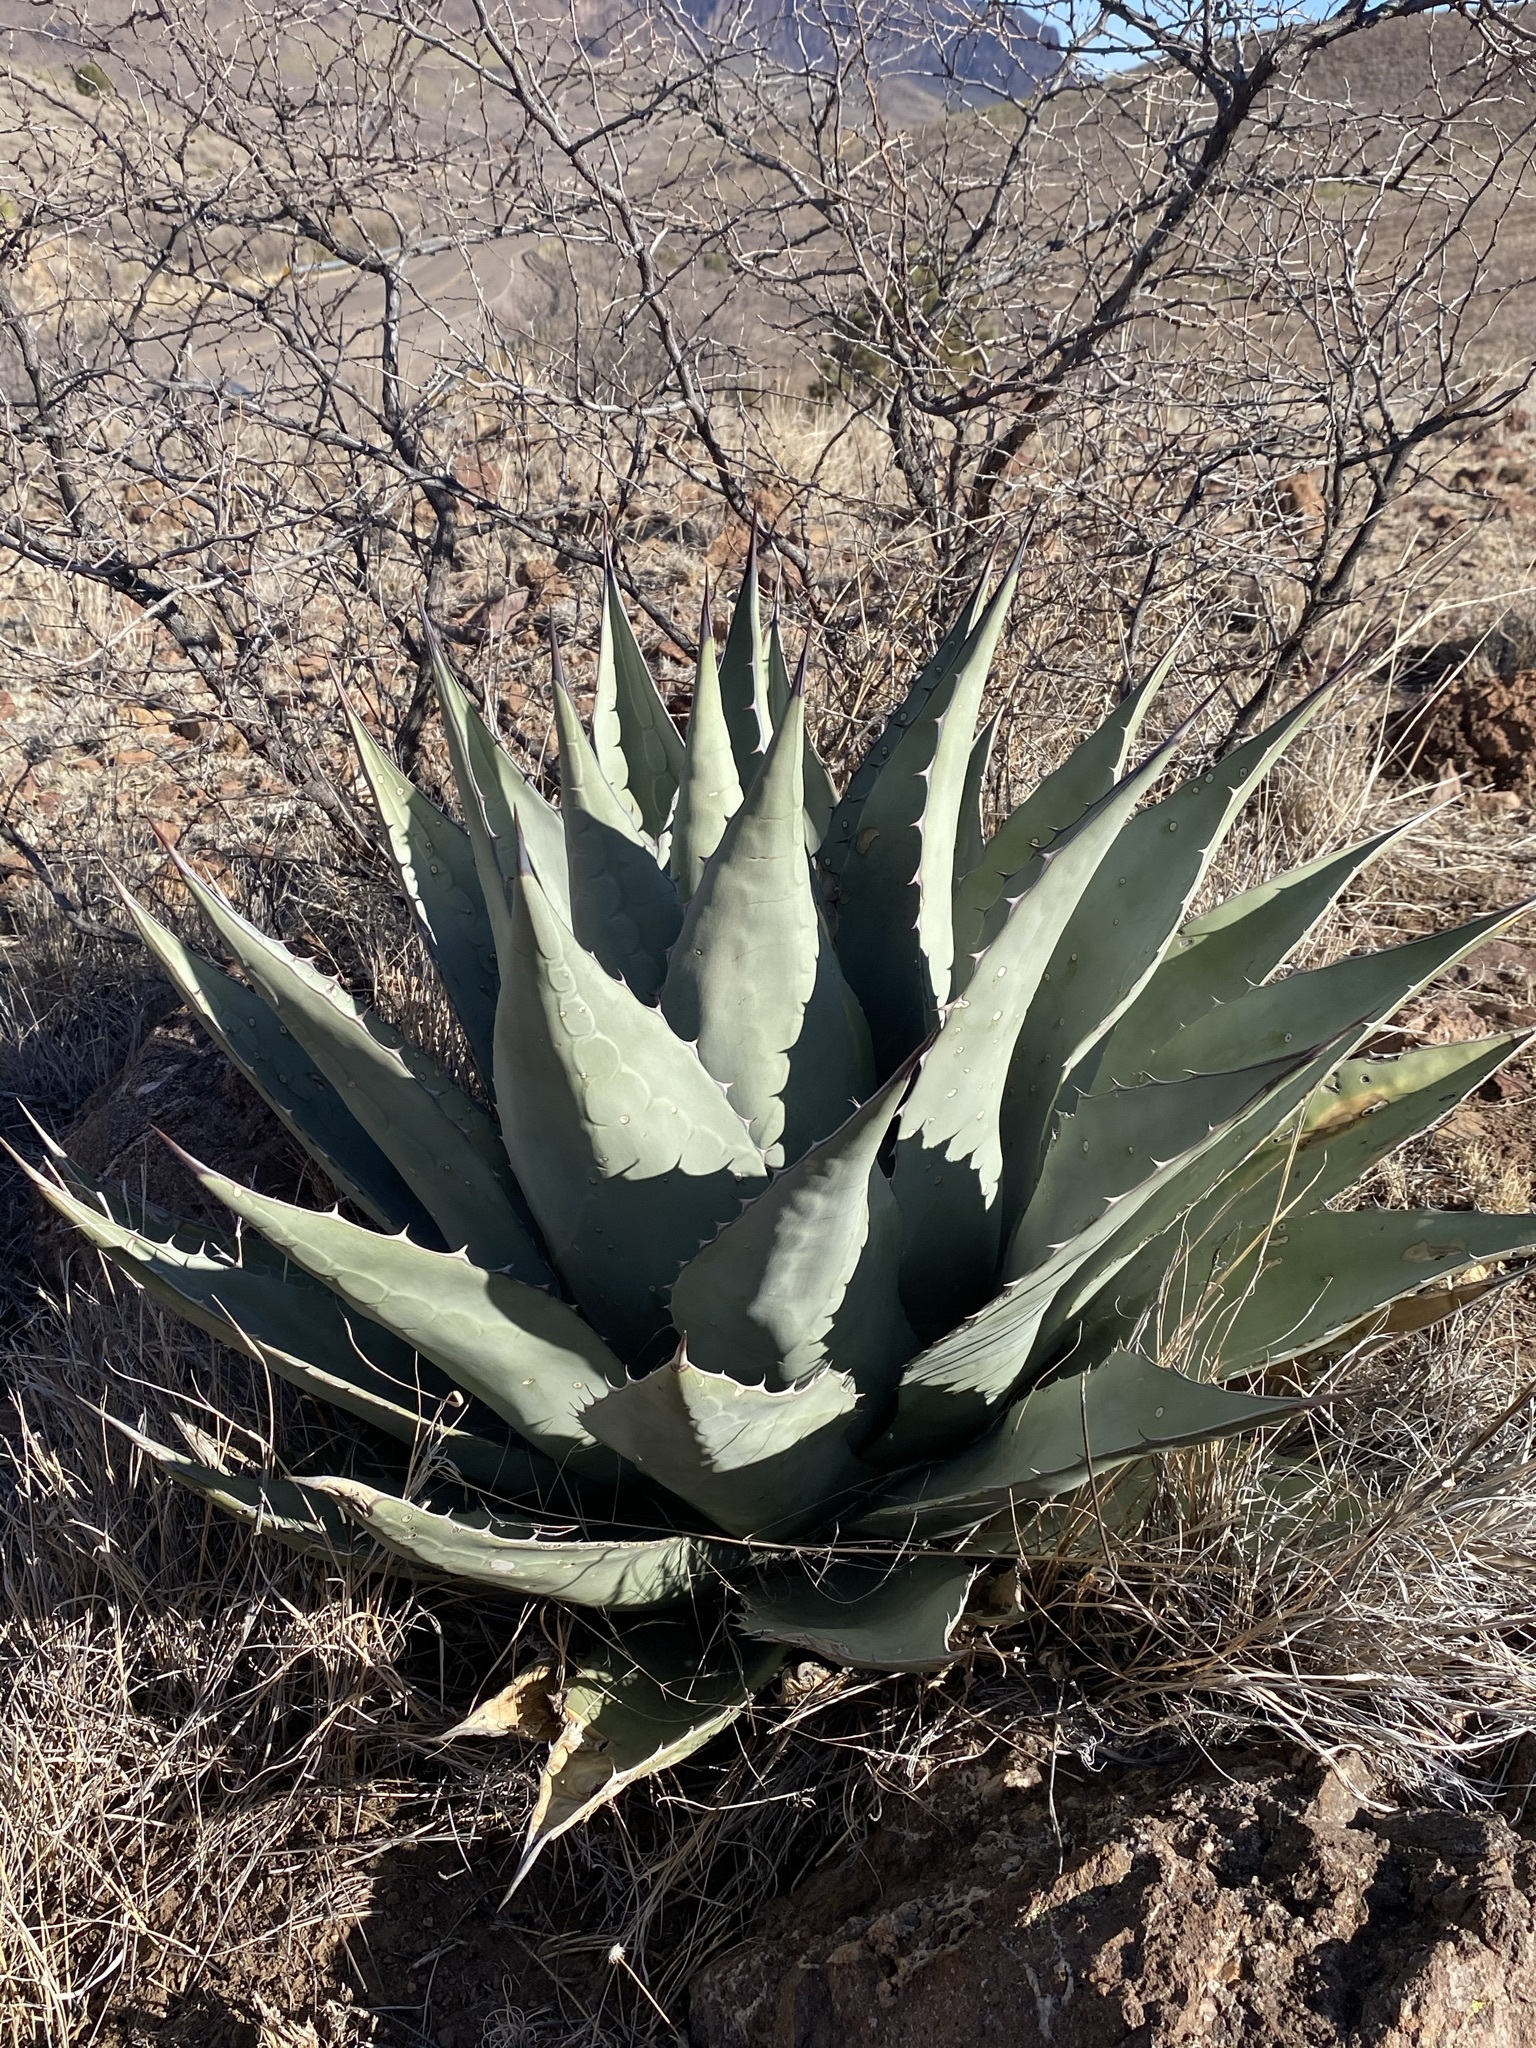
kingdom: Plantae
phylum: Tracheophyta
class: Liliopsida
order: Asparagales
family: Asparagaceae
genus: Agave
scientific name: Agave parryi
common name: Parry's agave
